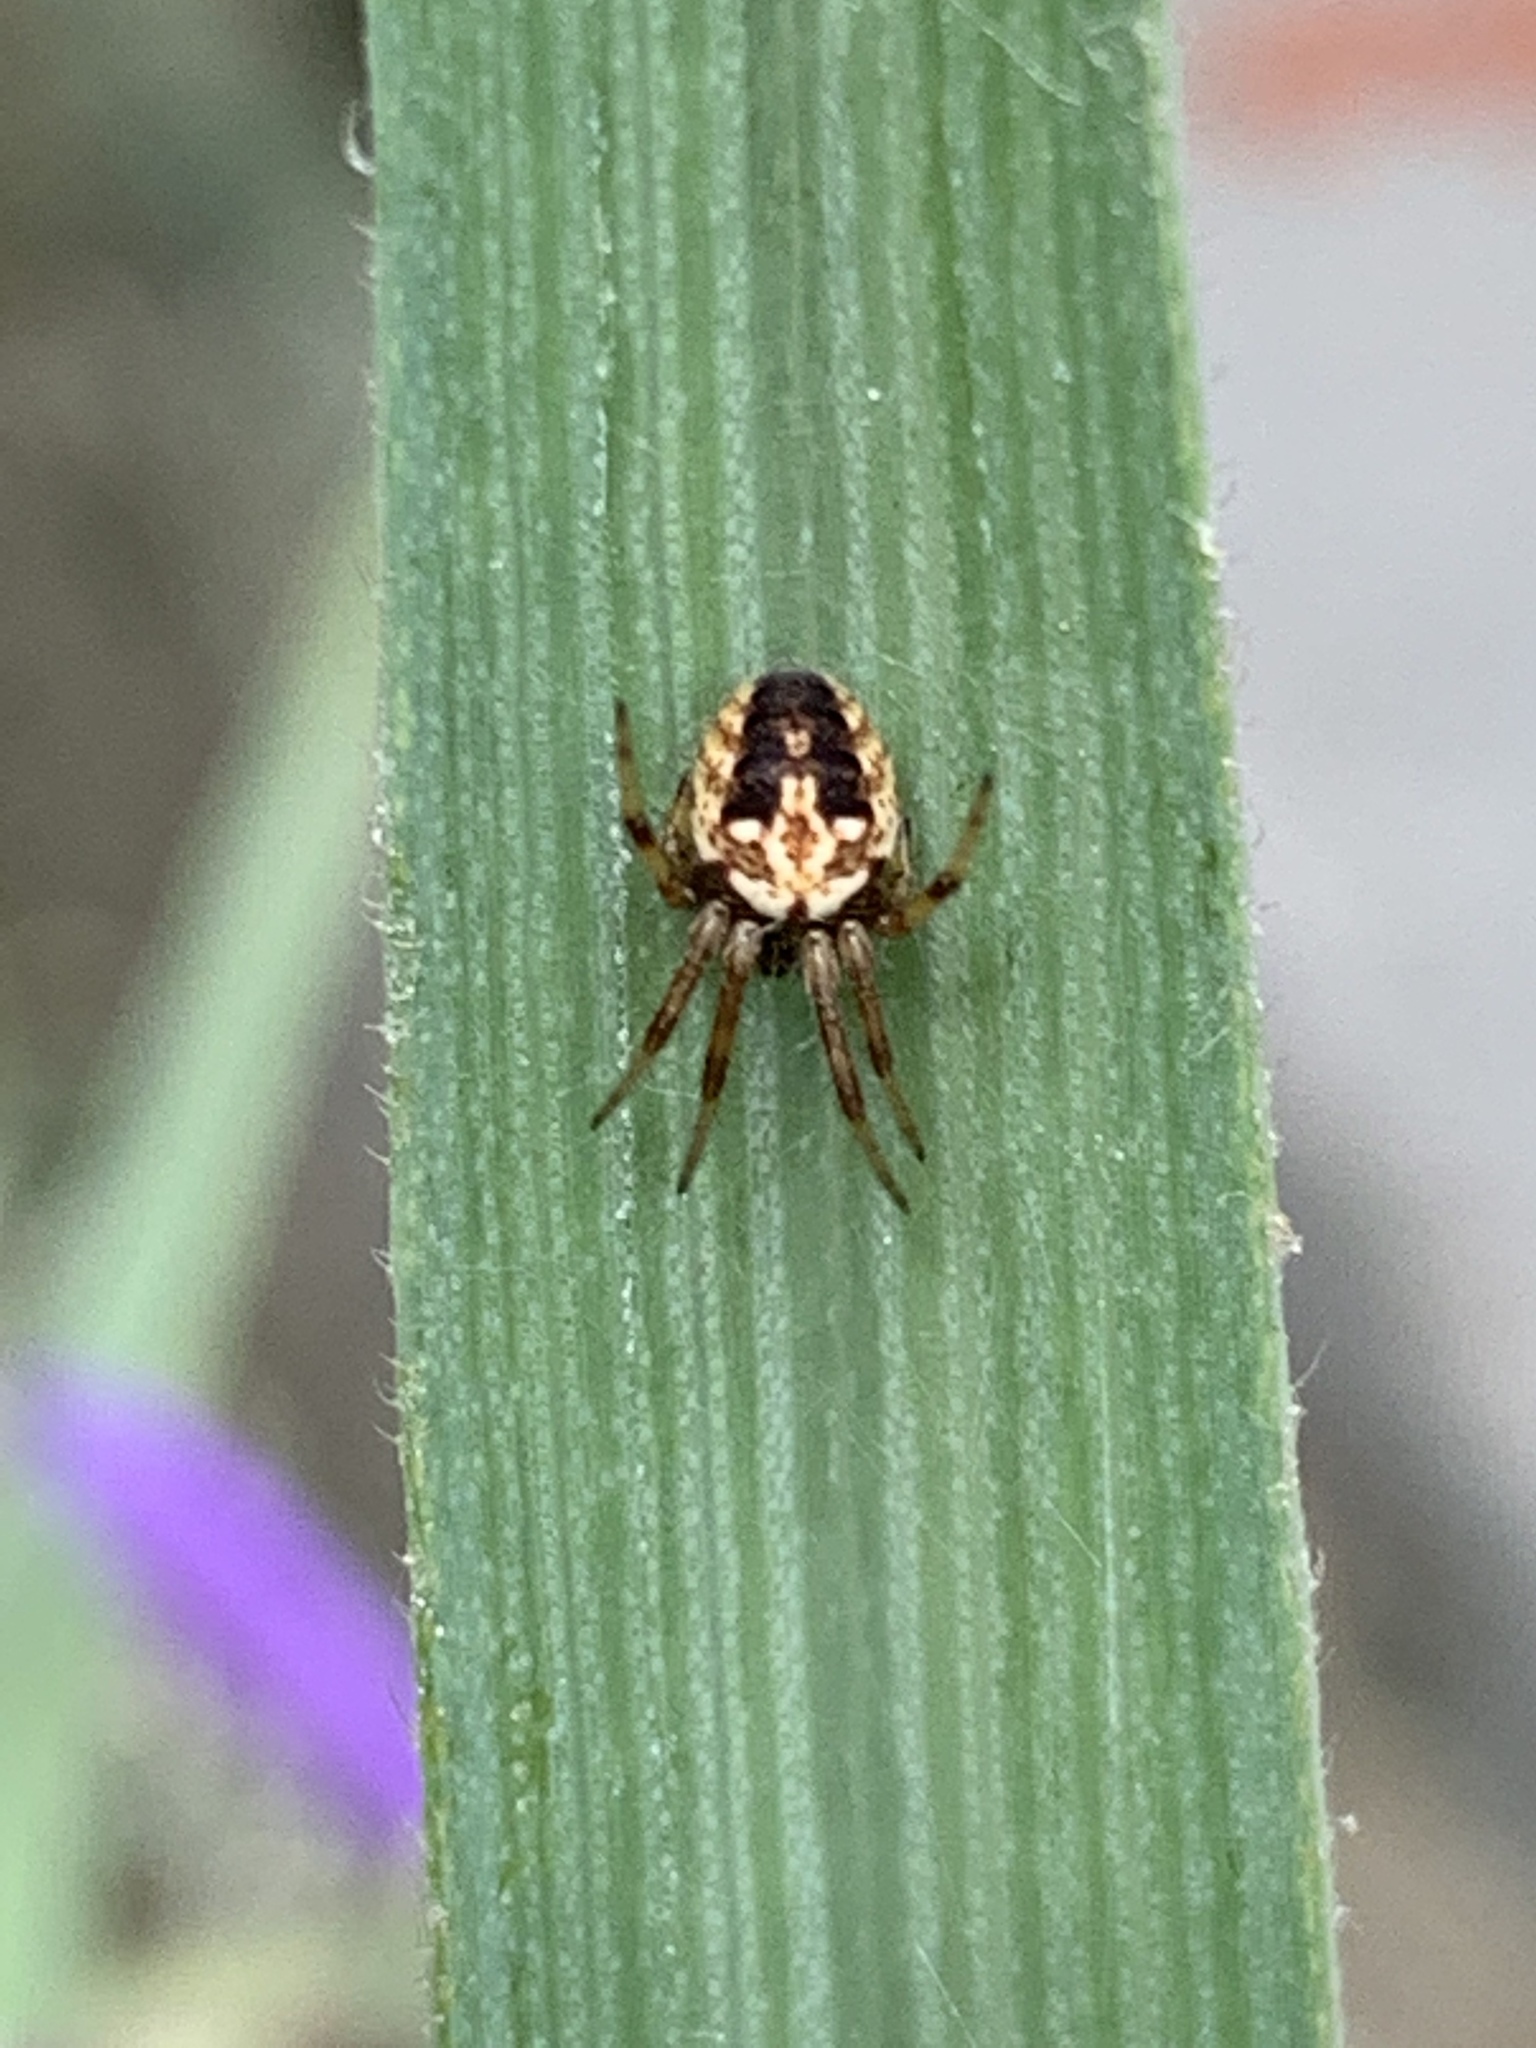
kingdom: Animalia
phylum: Arthropoda
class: Arachnida
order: Araneae
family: Araneidae
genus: Neoscona
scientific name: Neoscona arabesca
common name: Orb weavers
